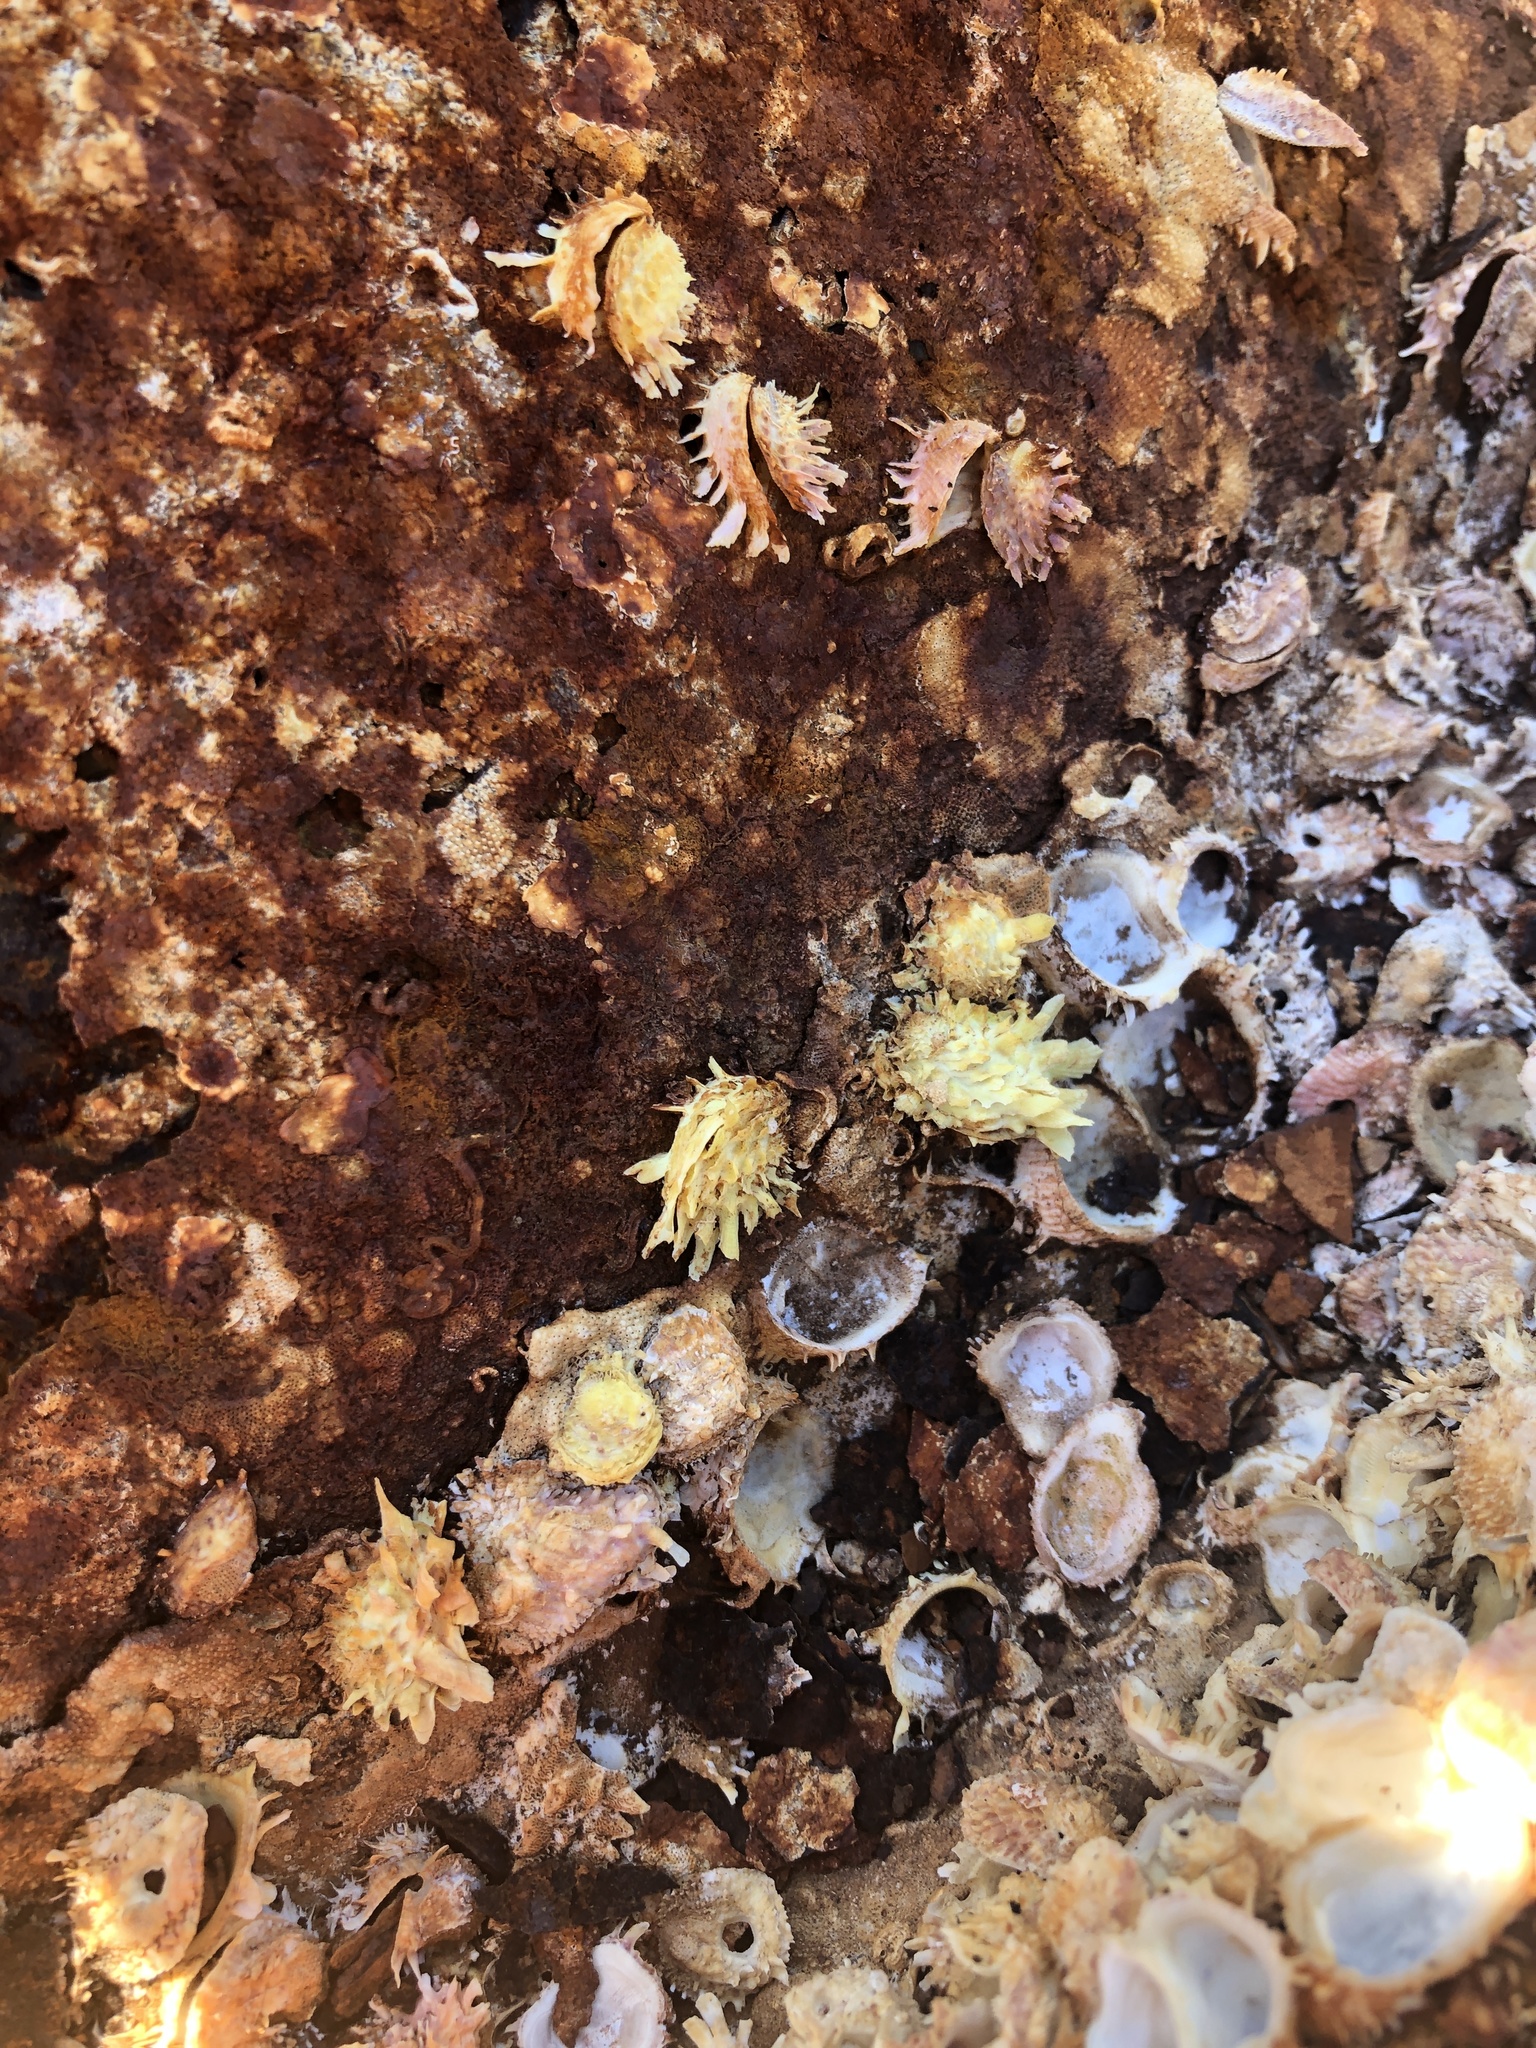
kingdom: Animalia
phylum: Mollusca
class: Bivalvia
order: Venerida
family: Chamidae
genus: Chama
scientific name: Chama macerophylla
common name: Leafy jewelbox
